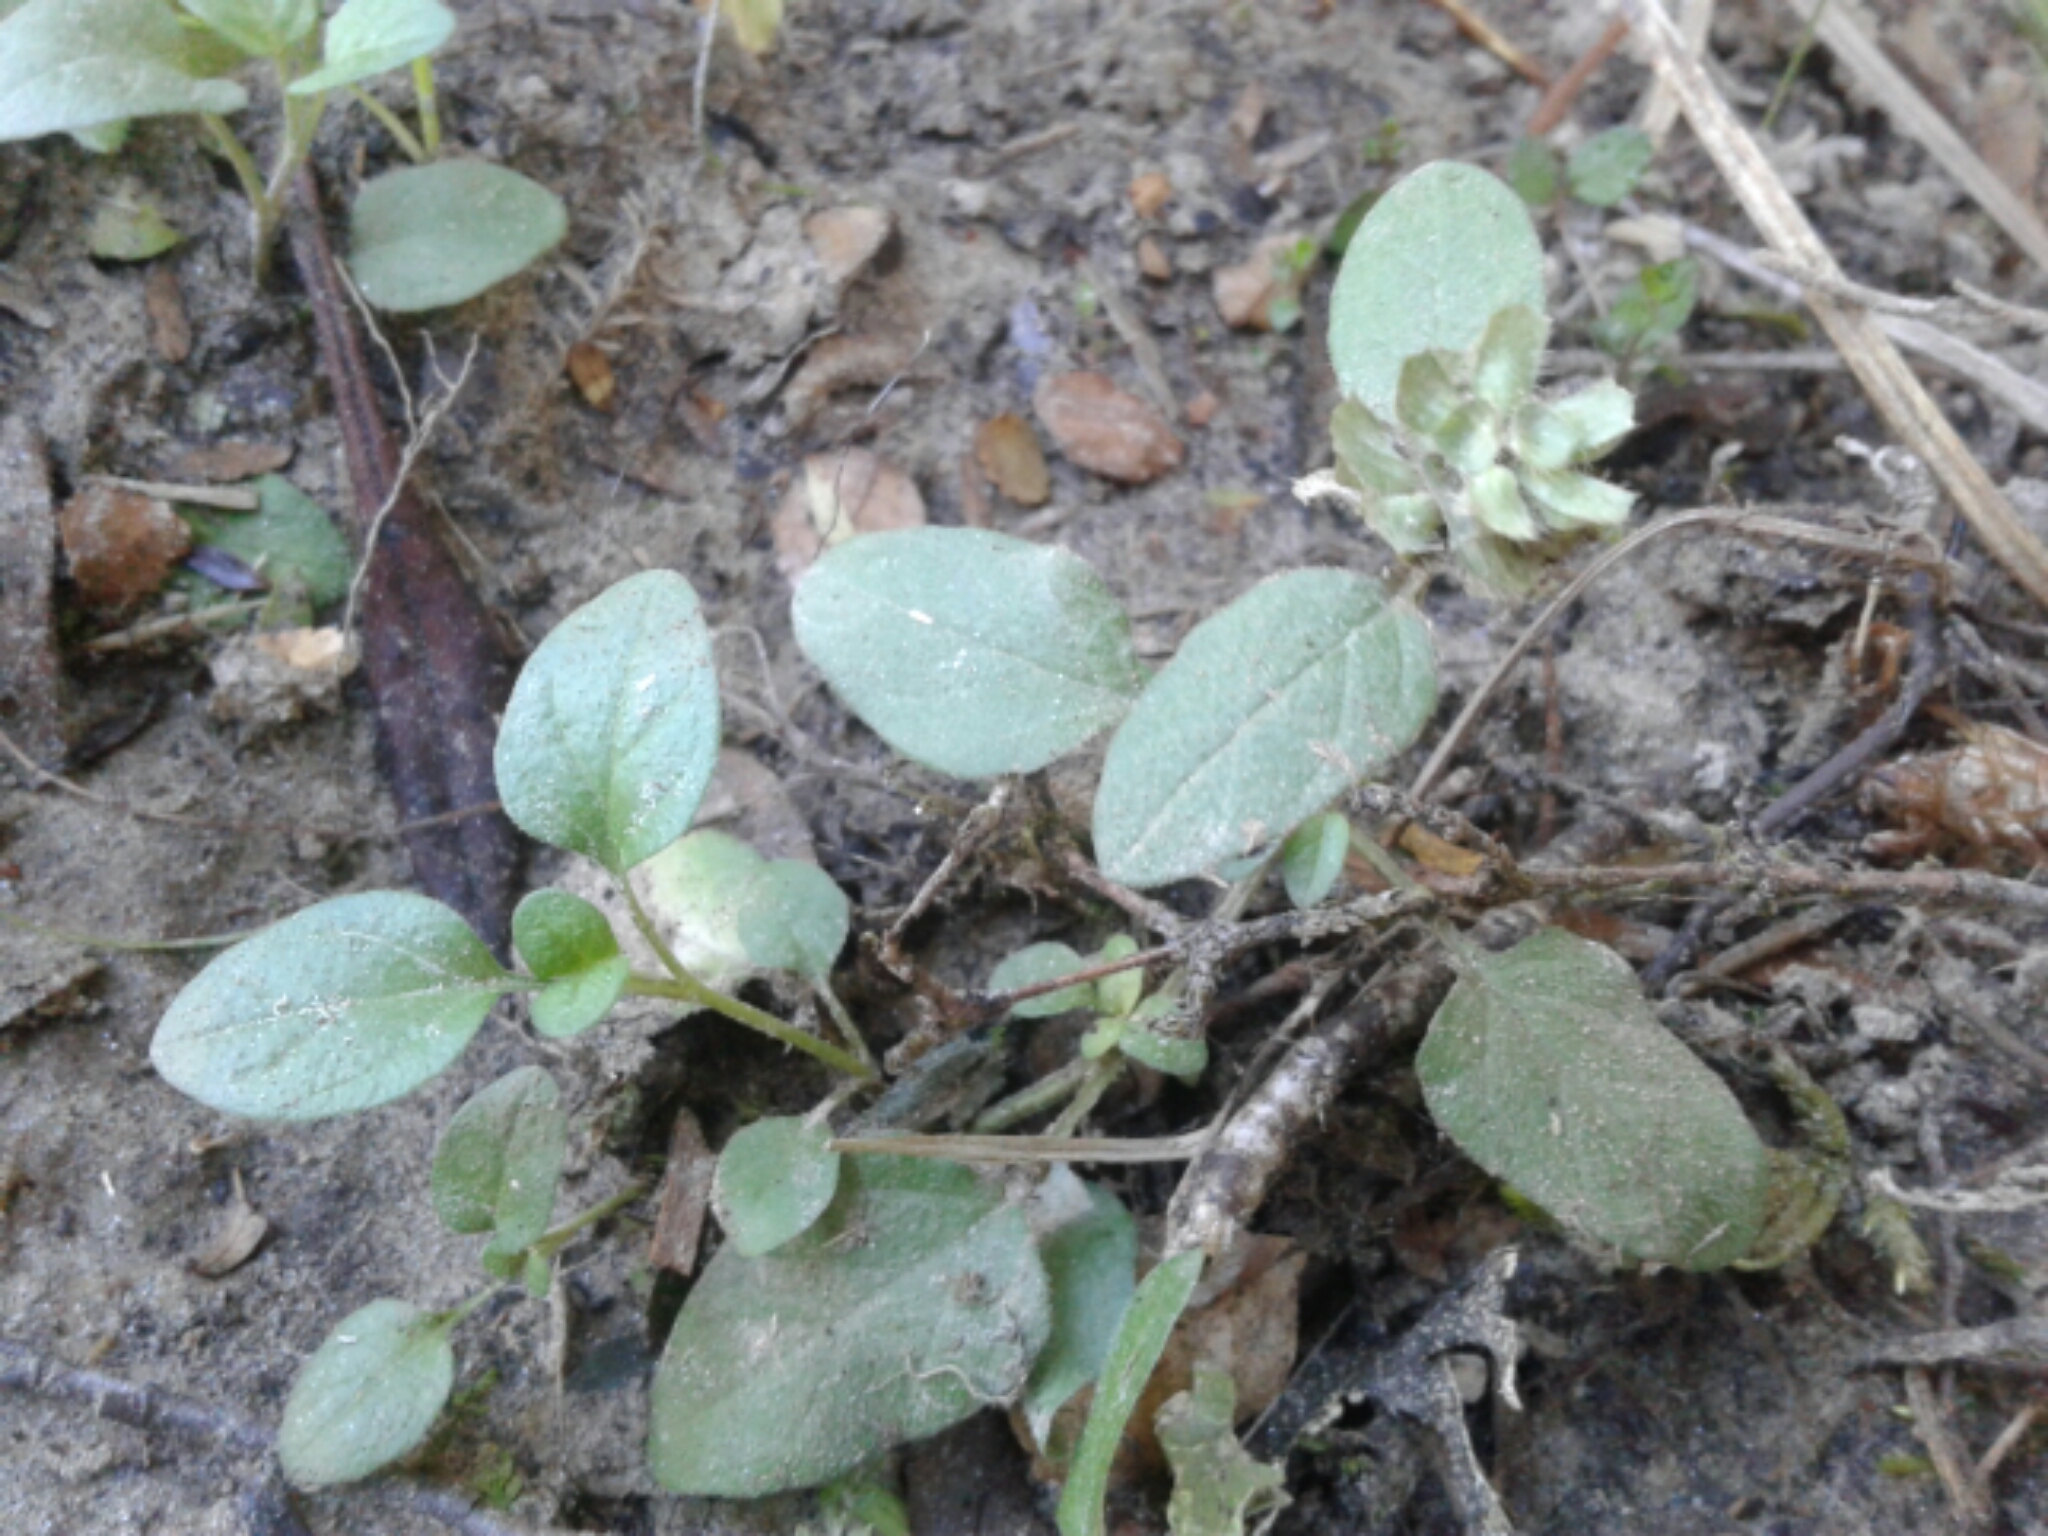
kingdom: Plantae
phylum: Tracheophyta
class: Magnoliopsida
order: Lamiales
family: Lamiaceae
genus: Prunella
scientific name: Prunella vulgaris
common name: Heal-all
